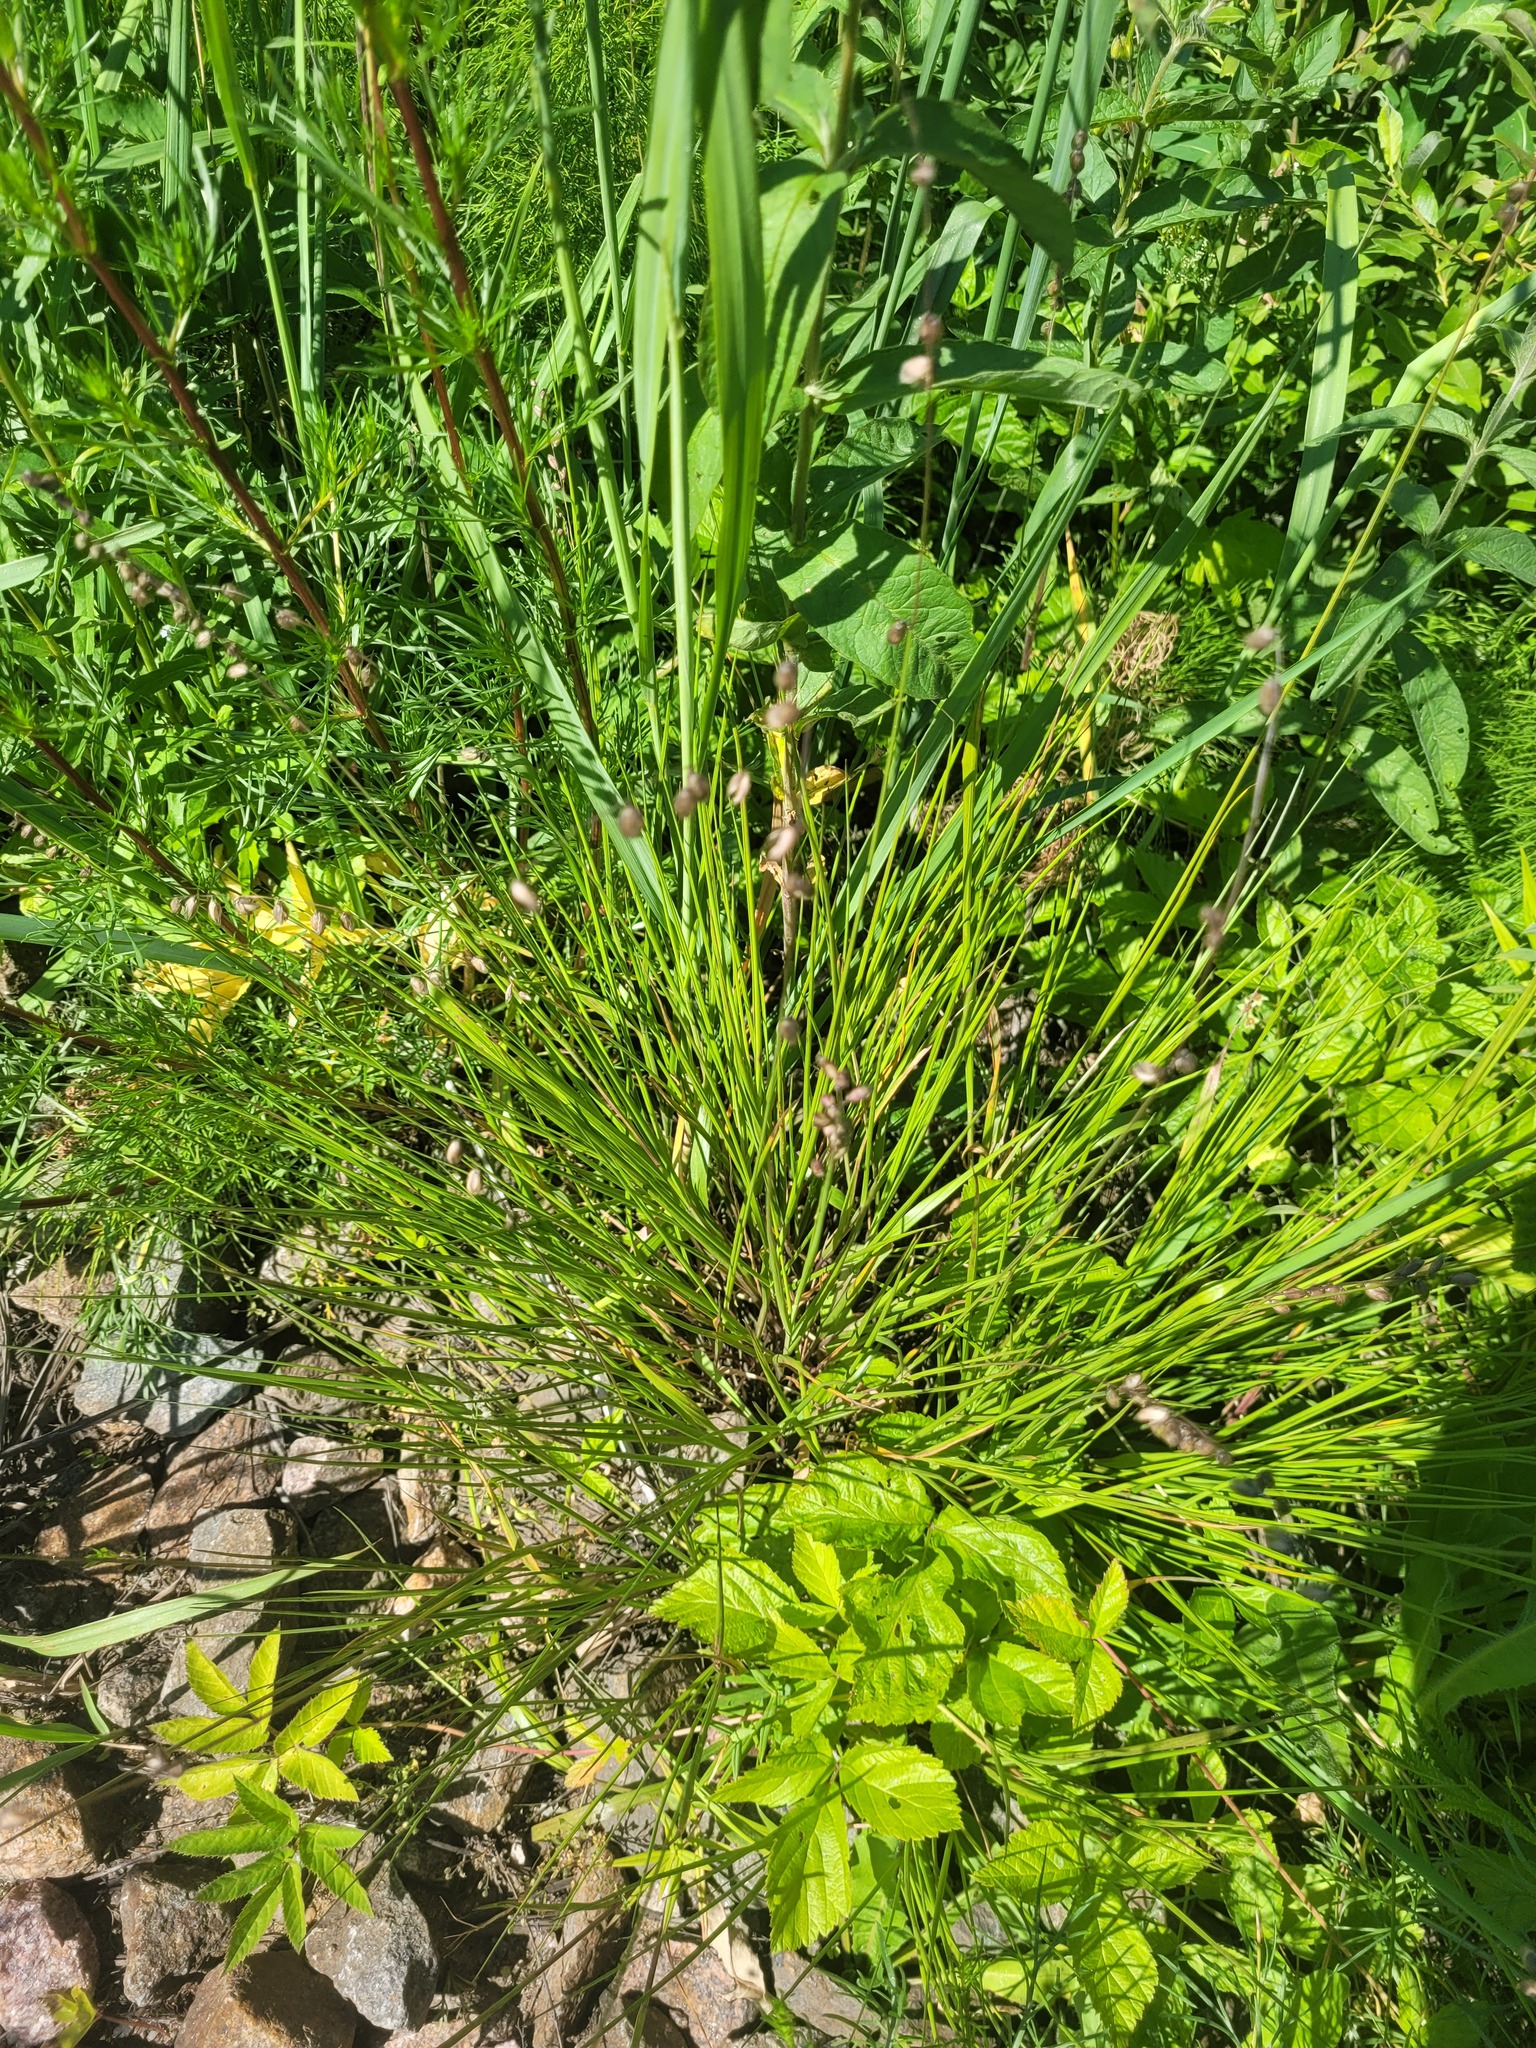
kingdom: Plantae
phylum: Tracheophyta
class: Liliopsida
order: Poales
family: Poaceae
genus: Melica
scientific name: Melica nutans
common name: Mountain melick
